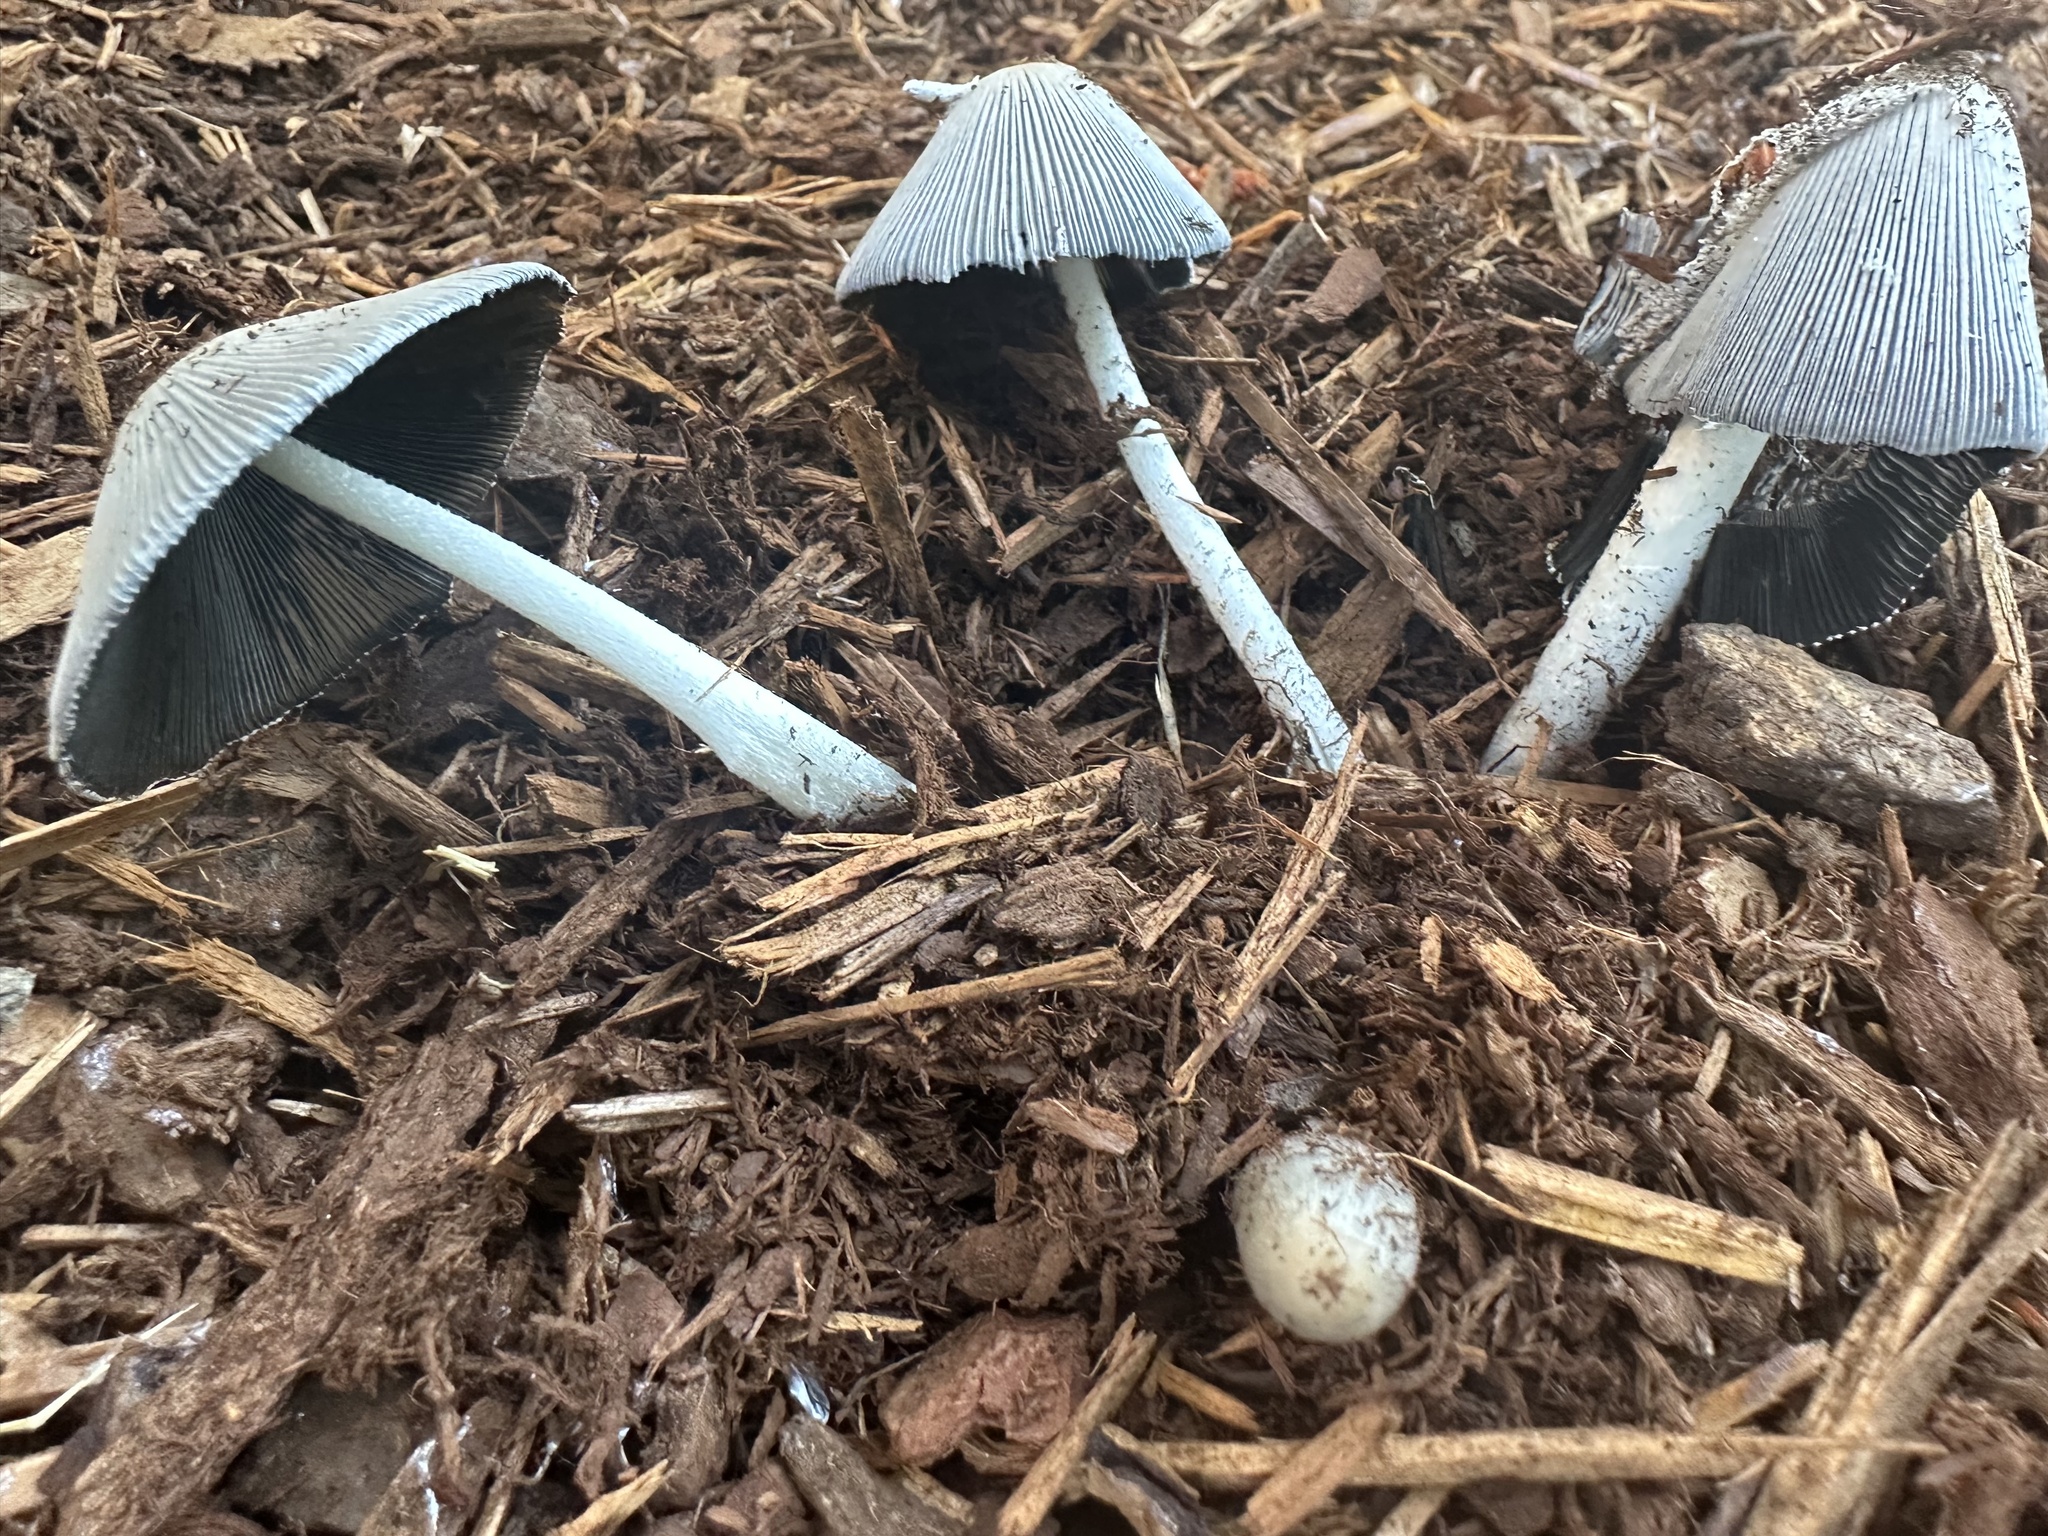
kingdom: Fungi
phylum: Basidiomycota
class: Agaricomycetes
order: Agaricales
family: Psathyrellaceae
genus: Coprinopsis
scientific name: Coprinopsis lagopus
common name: Hare'sfoot inkcap
